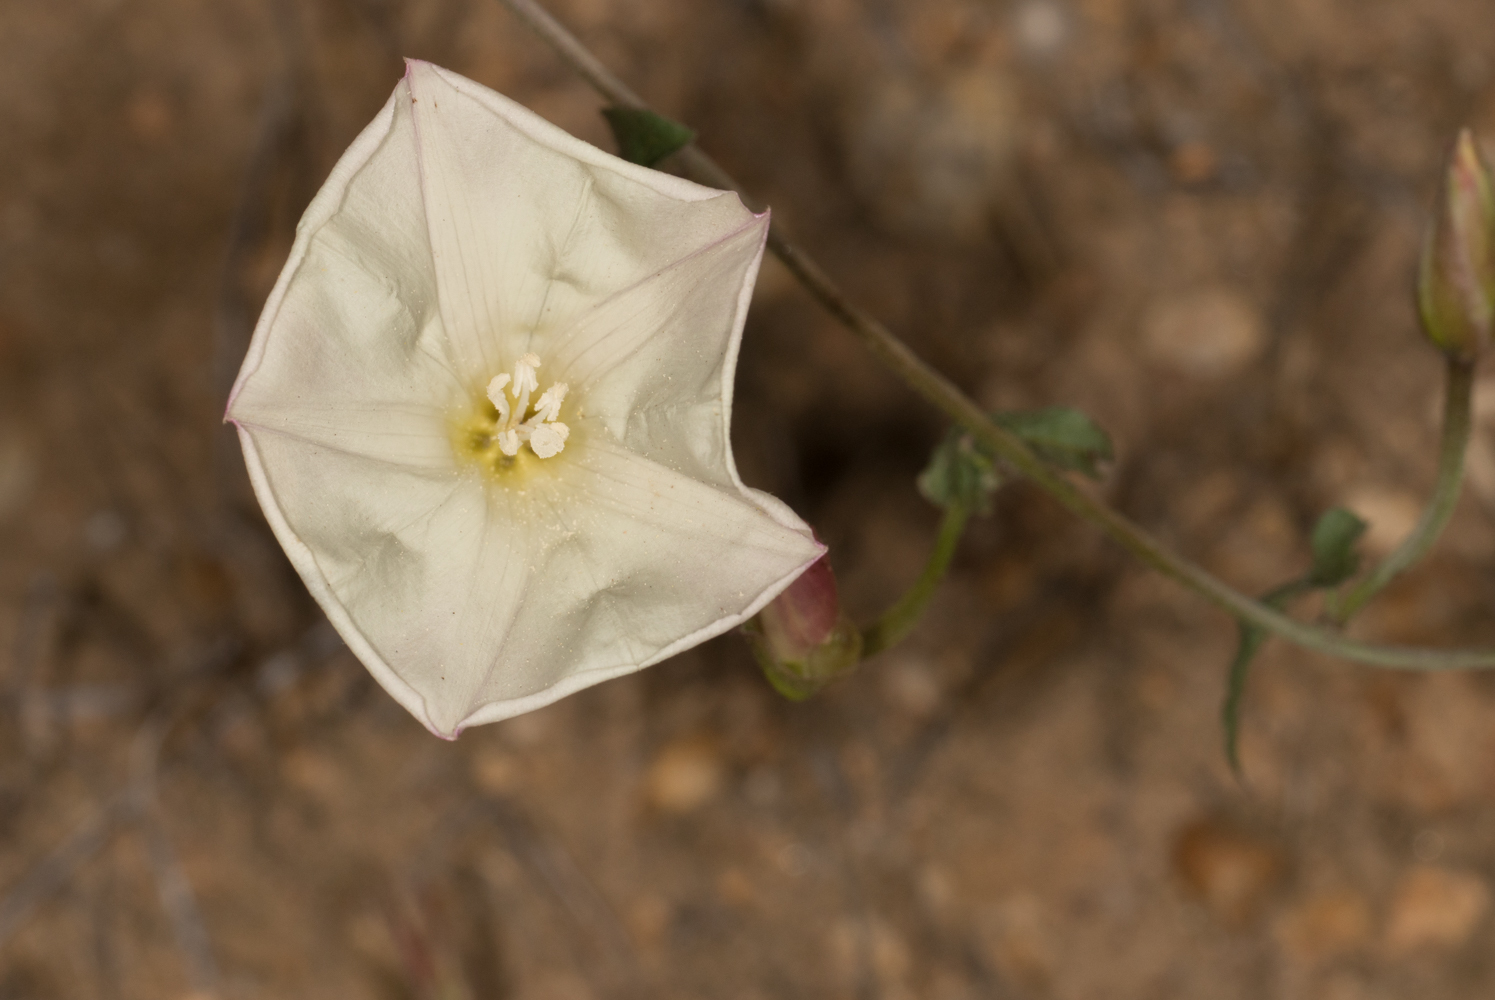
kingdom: Plantae
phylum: Tracheophyta
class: Magnoliopsida
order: Solanales
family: Convolvulaceae
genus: Calystegia
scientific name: Calystegia macrostegia
